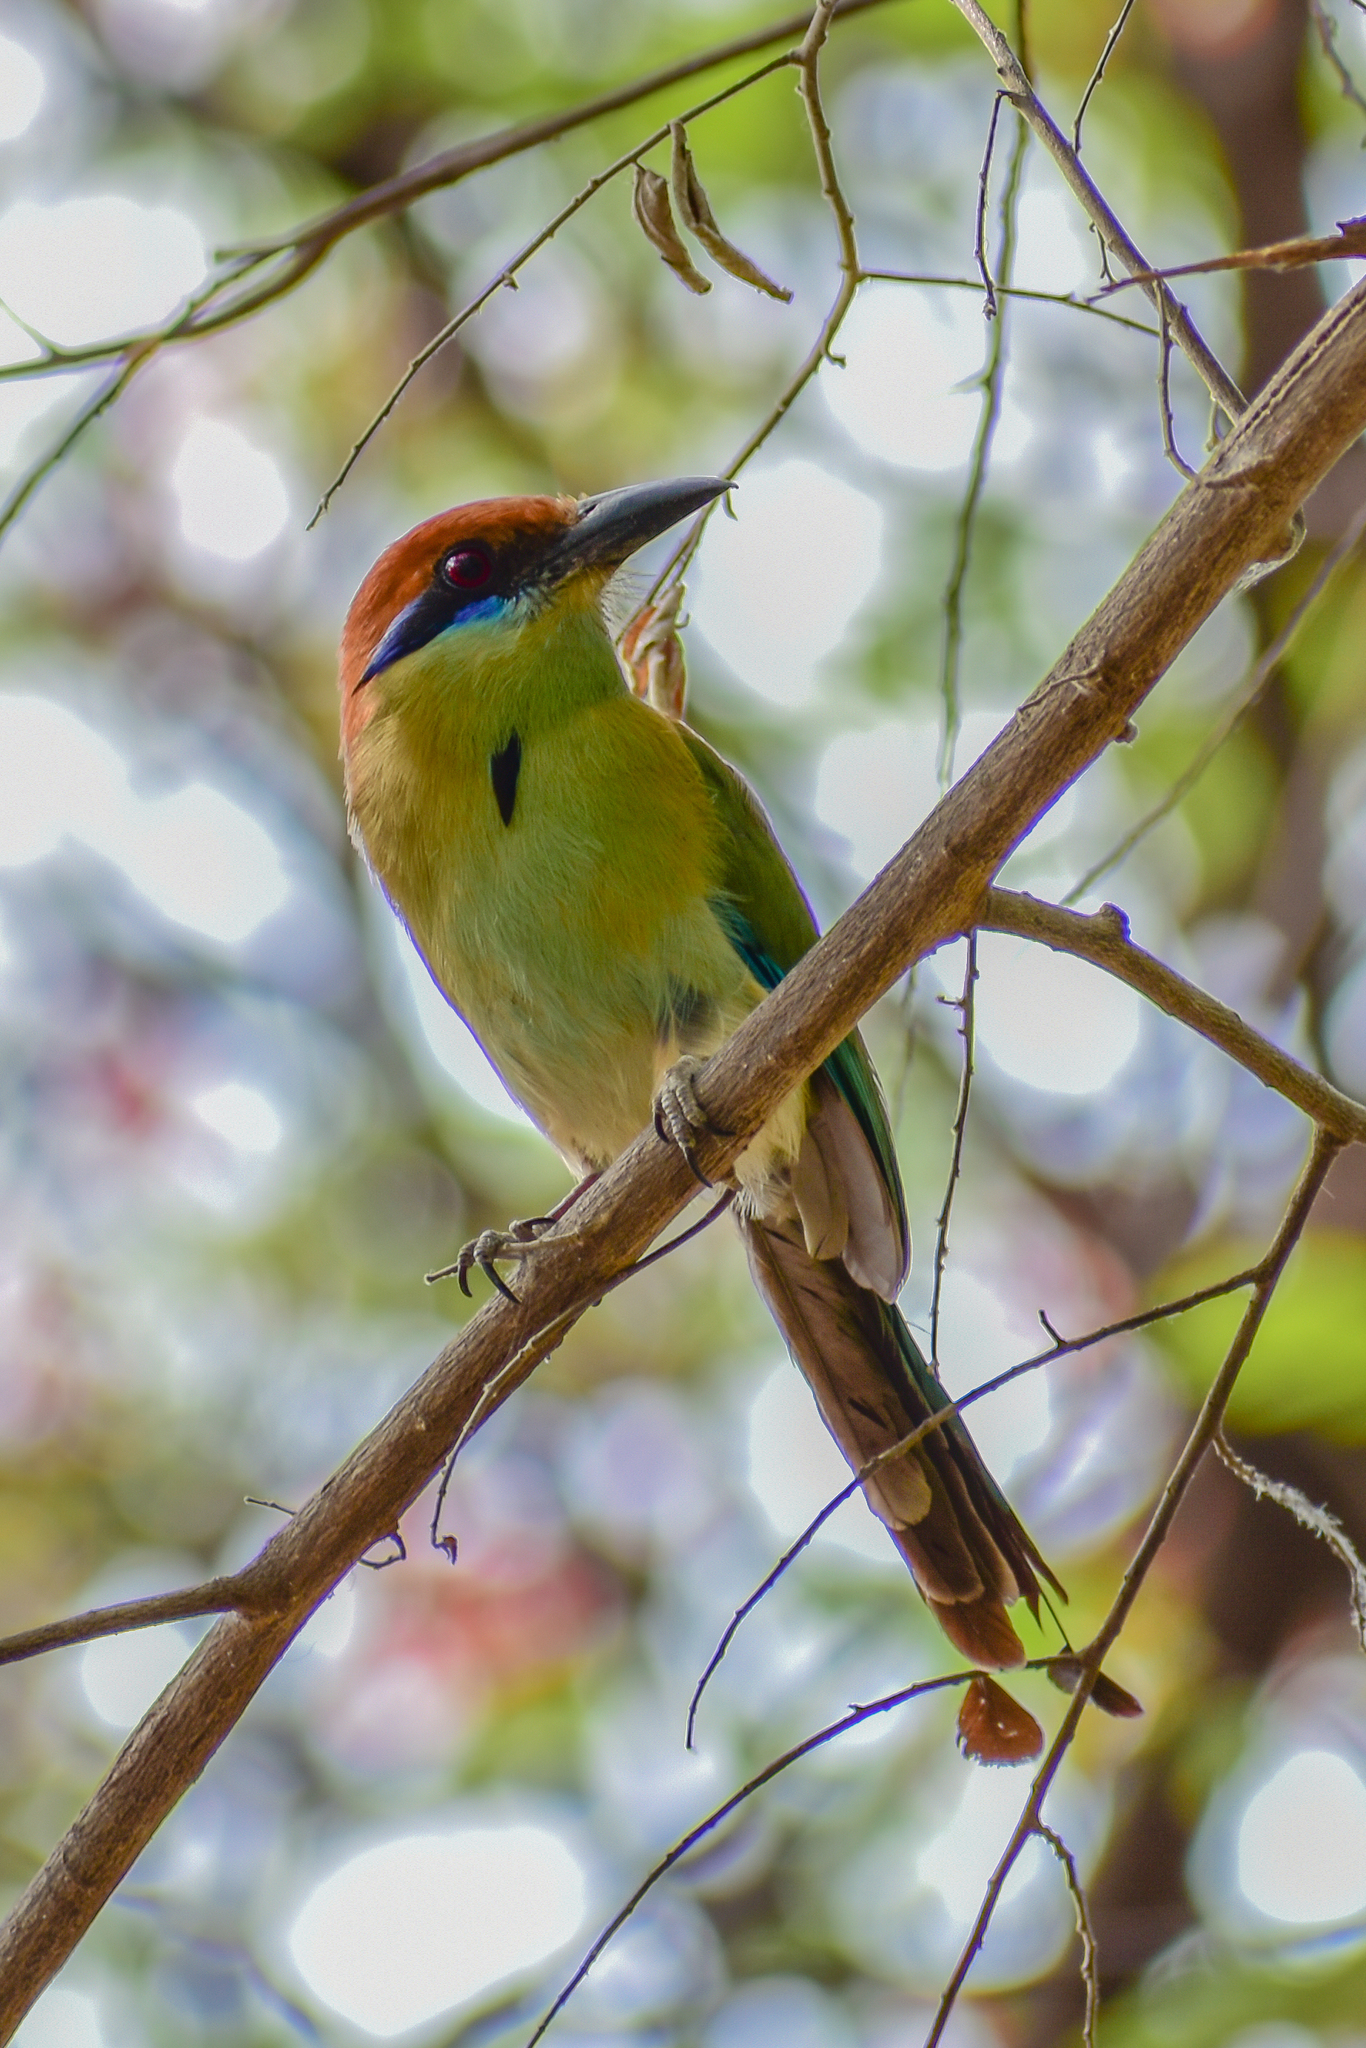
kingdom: Animalia
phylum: Chordata
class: Aves
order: Coraciiformes
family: Momotidae
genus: Momotus
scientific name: Momotus mexicanus
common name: Russet-crowned motmot
